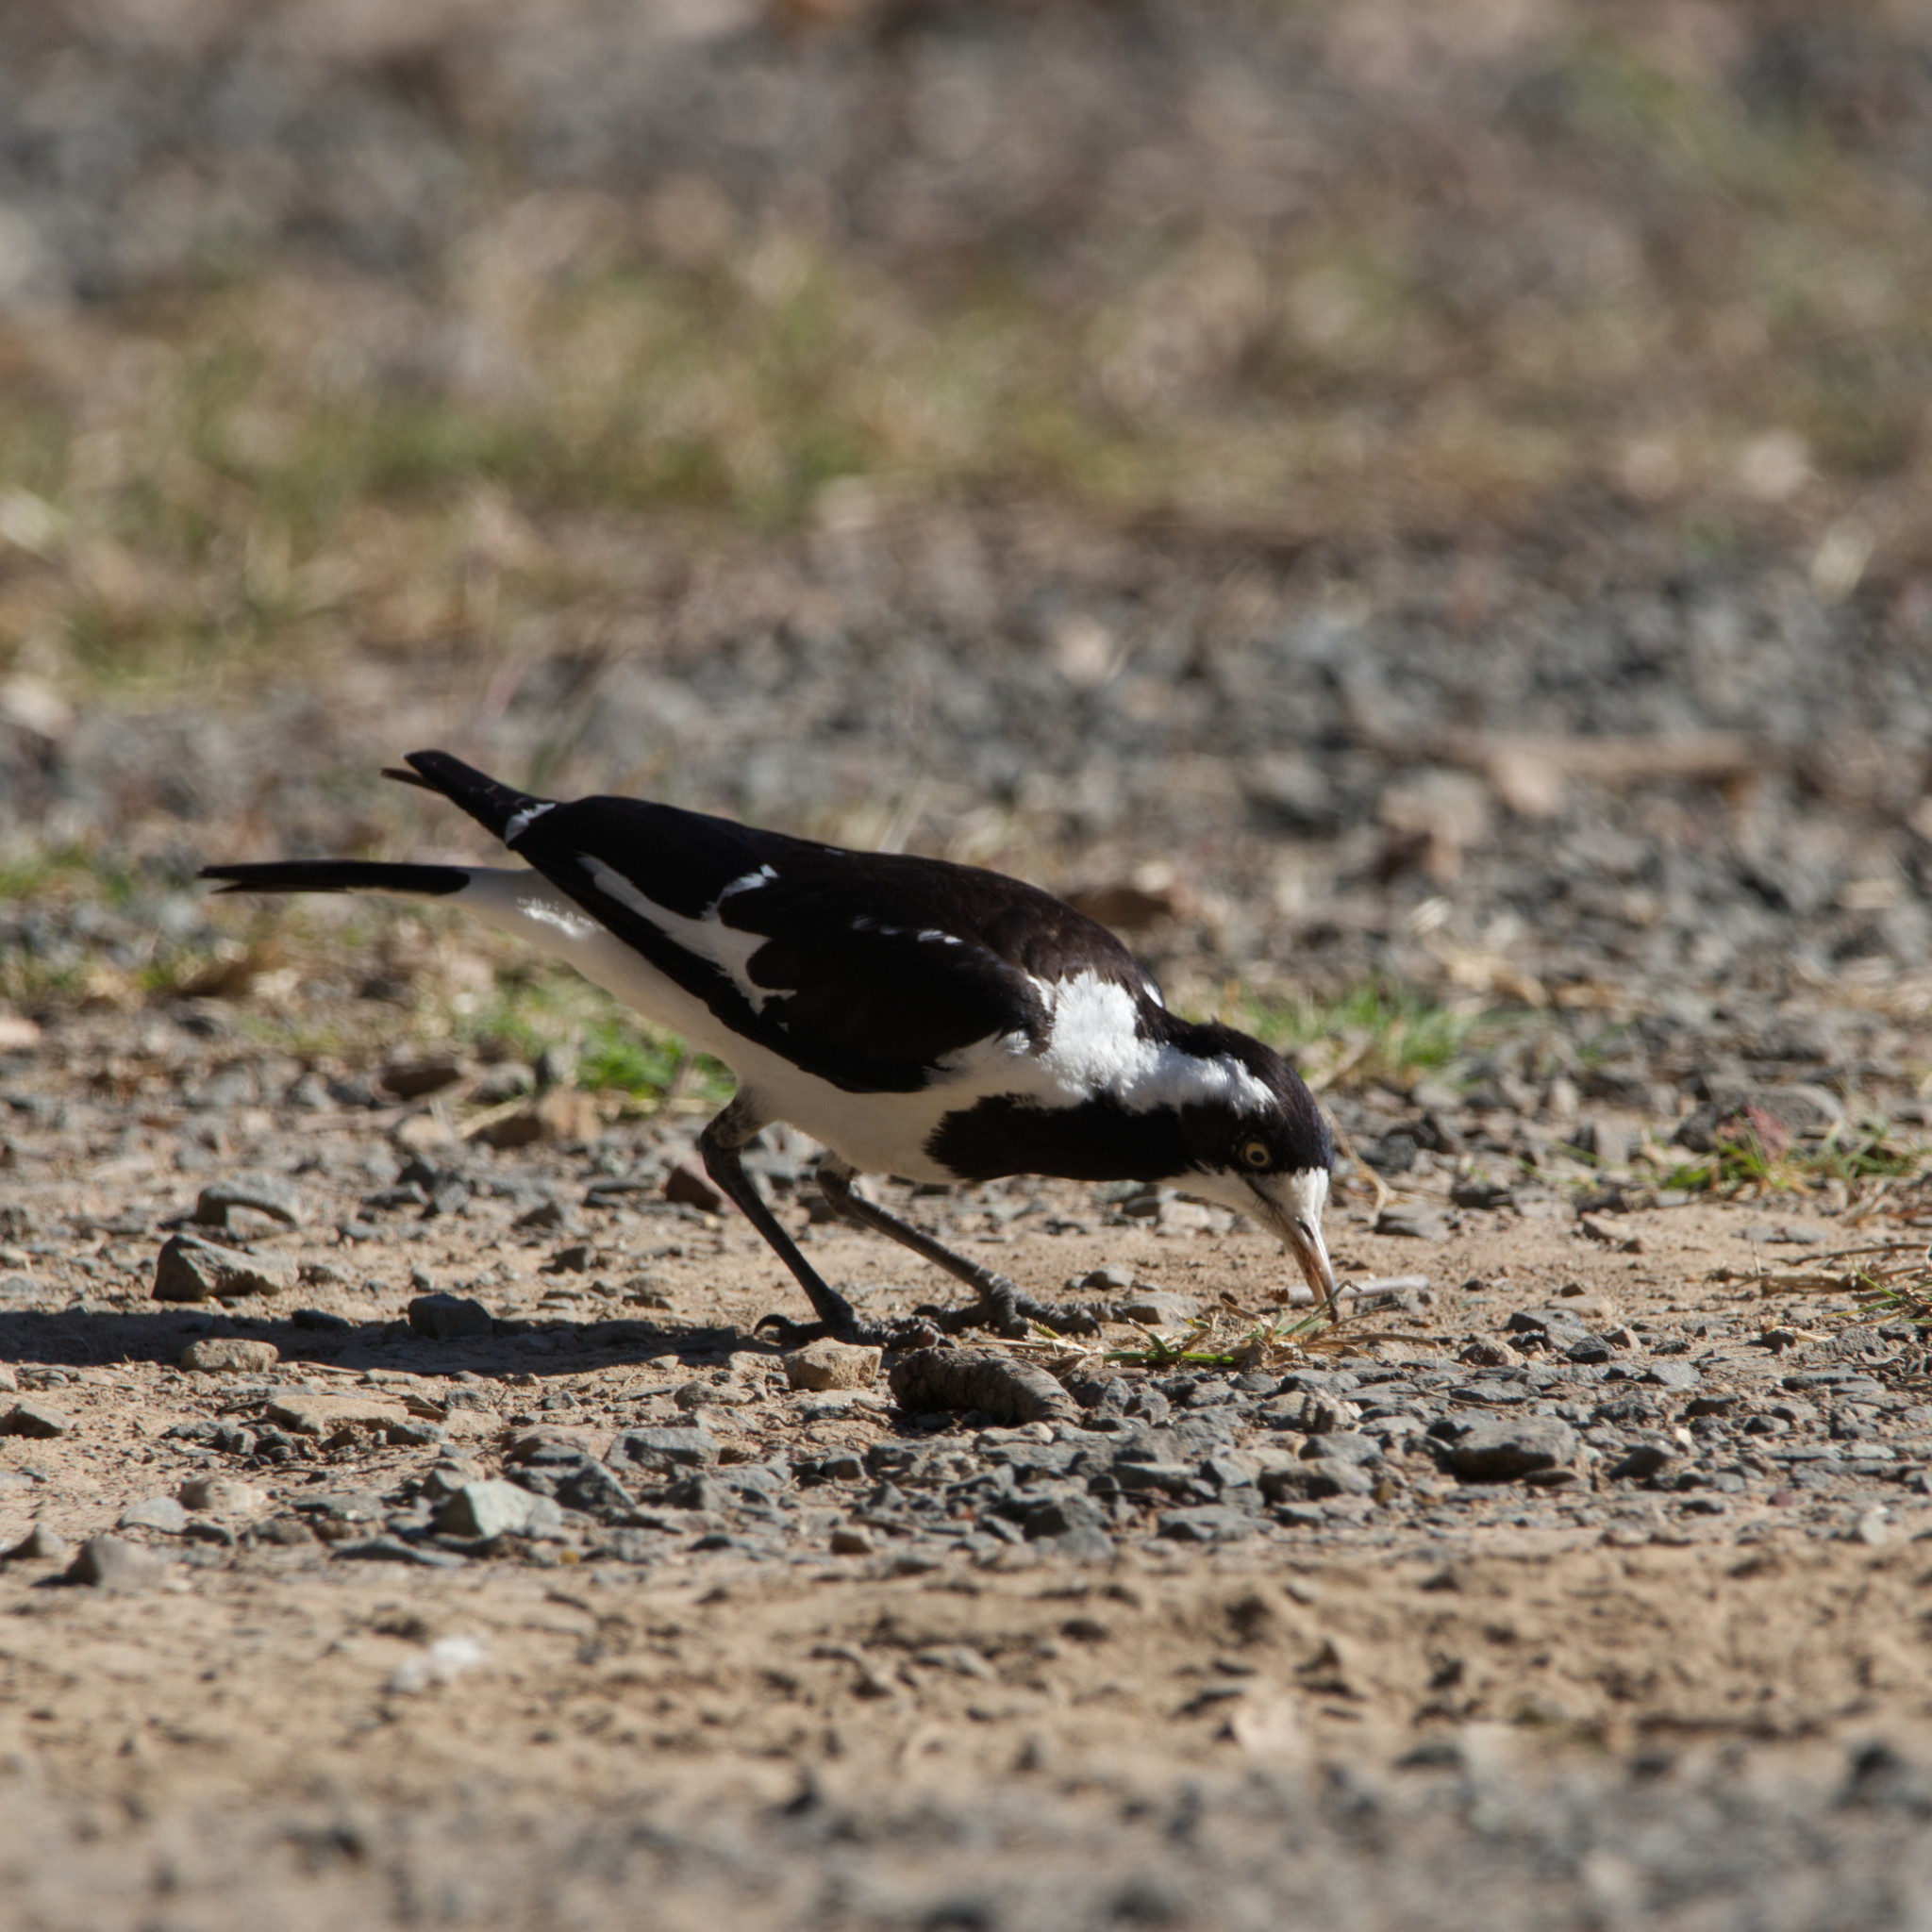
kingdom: Animalia
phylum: Chordata
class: Aves
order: Passeriformes
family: Monarchidae
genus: Grallina
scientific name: Grallina cyanoleuca
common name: Magpie-lark
